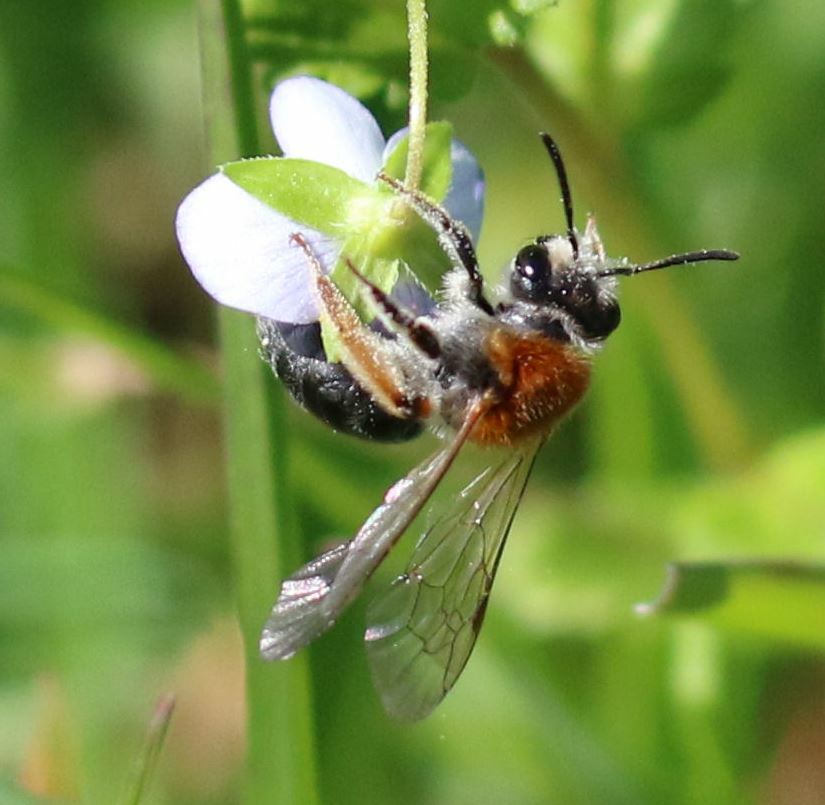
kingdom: Animalia
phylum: Arthropoda
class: Insecta
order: Hymenoptera
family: Andrenidae
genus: Andrena
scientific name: Andrena haemorrhoa
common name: Early mining bee
